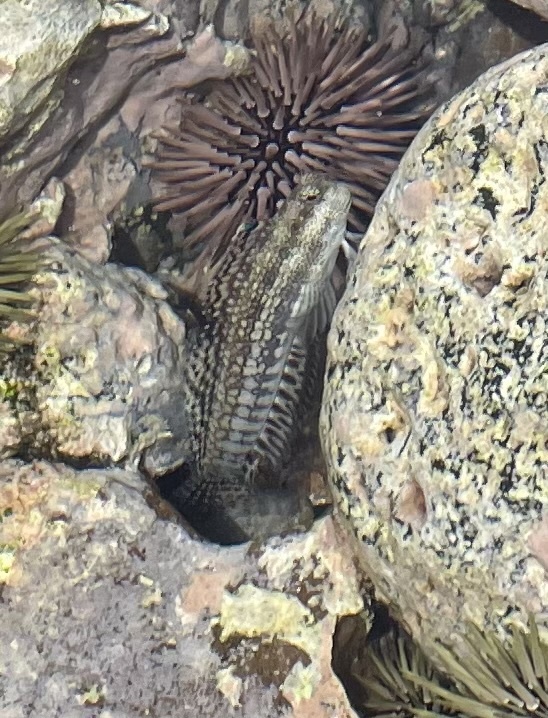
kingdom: Animalia
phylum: Chordata
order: Perciformes
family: Blenniidae
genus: Blenniella
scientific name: Blenniella gibbifrons
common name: Picture rockskipper
